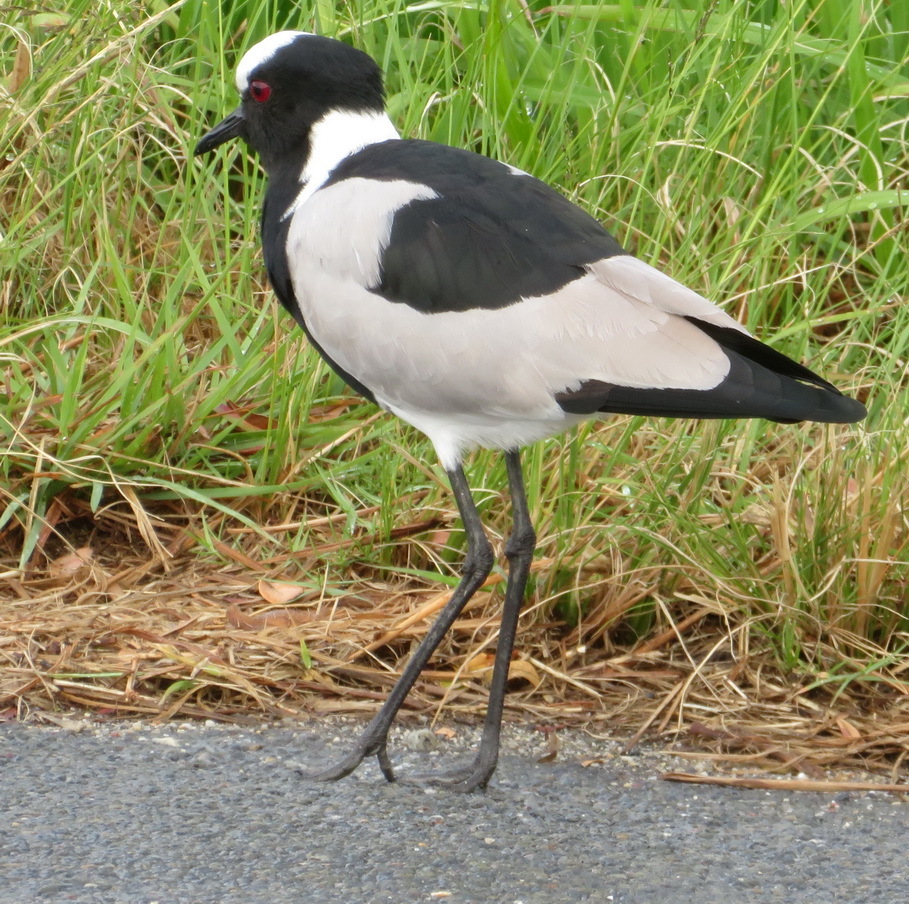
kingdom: Animalia
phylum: Chordata
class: Aves
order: Charadriiformes
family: Charadriidae
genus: Vanellus
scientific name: Vanellus armatus
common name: Blacksmith lapwing
